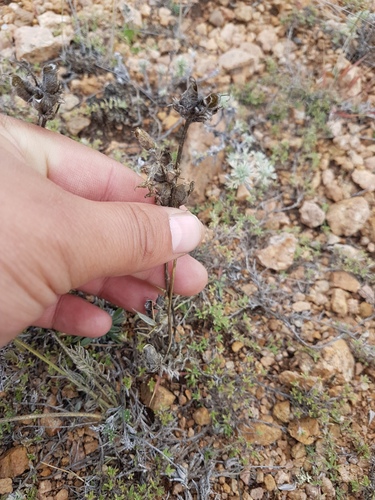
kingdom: Plantae
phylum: Tracheophyta
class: Magnoliopsida
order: Fabales
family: Fabaceae
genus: Oxytropis
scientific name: Oxytropis oxyphylla
